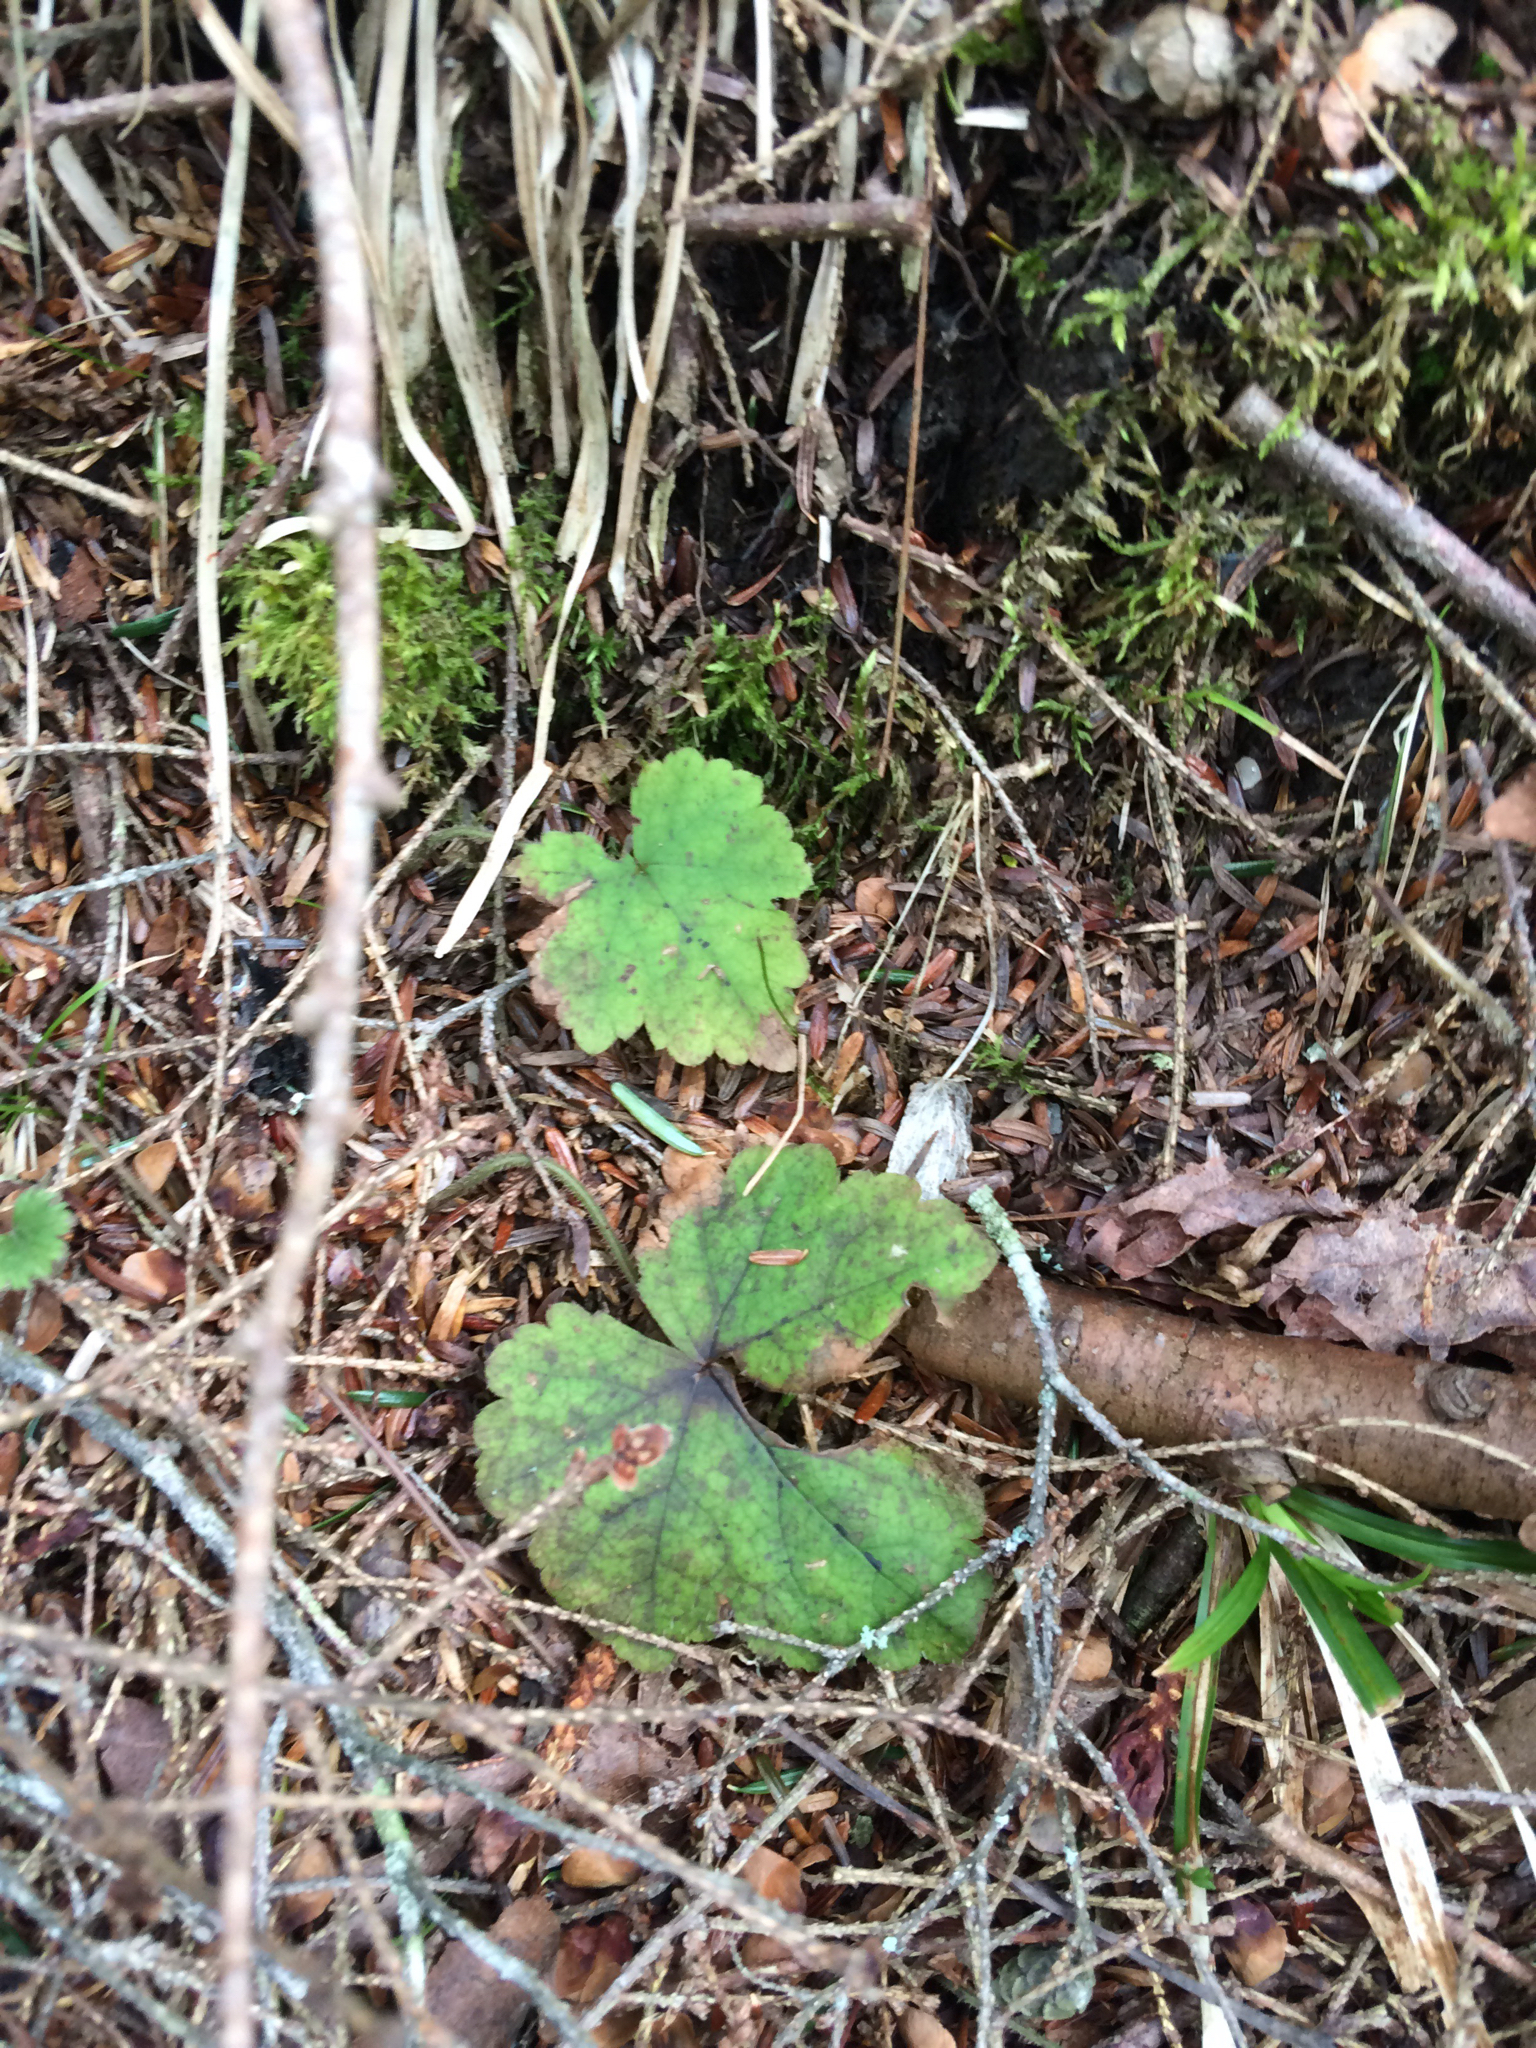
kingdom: Plantae
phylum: Tracheophyta
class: Magnoliopsida
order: Saxifragales
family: Saxifragaceae
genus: Tiarella
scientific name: Tiarella stolonifera
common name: Stoloniferous foamflower
